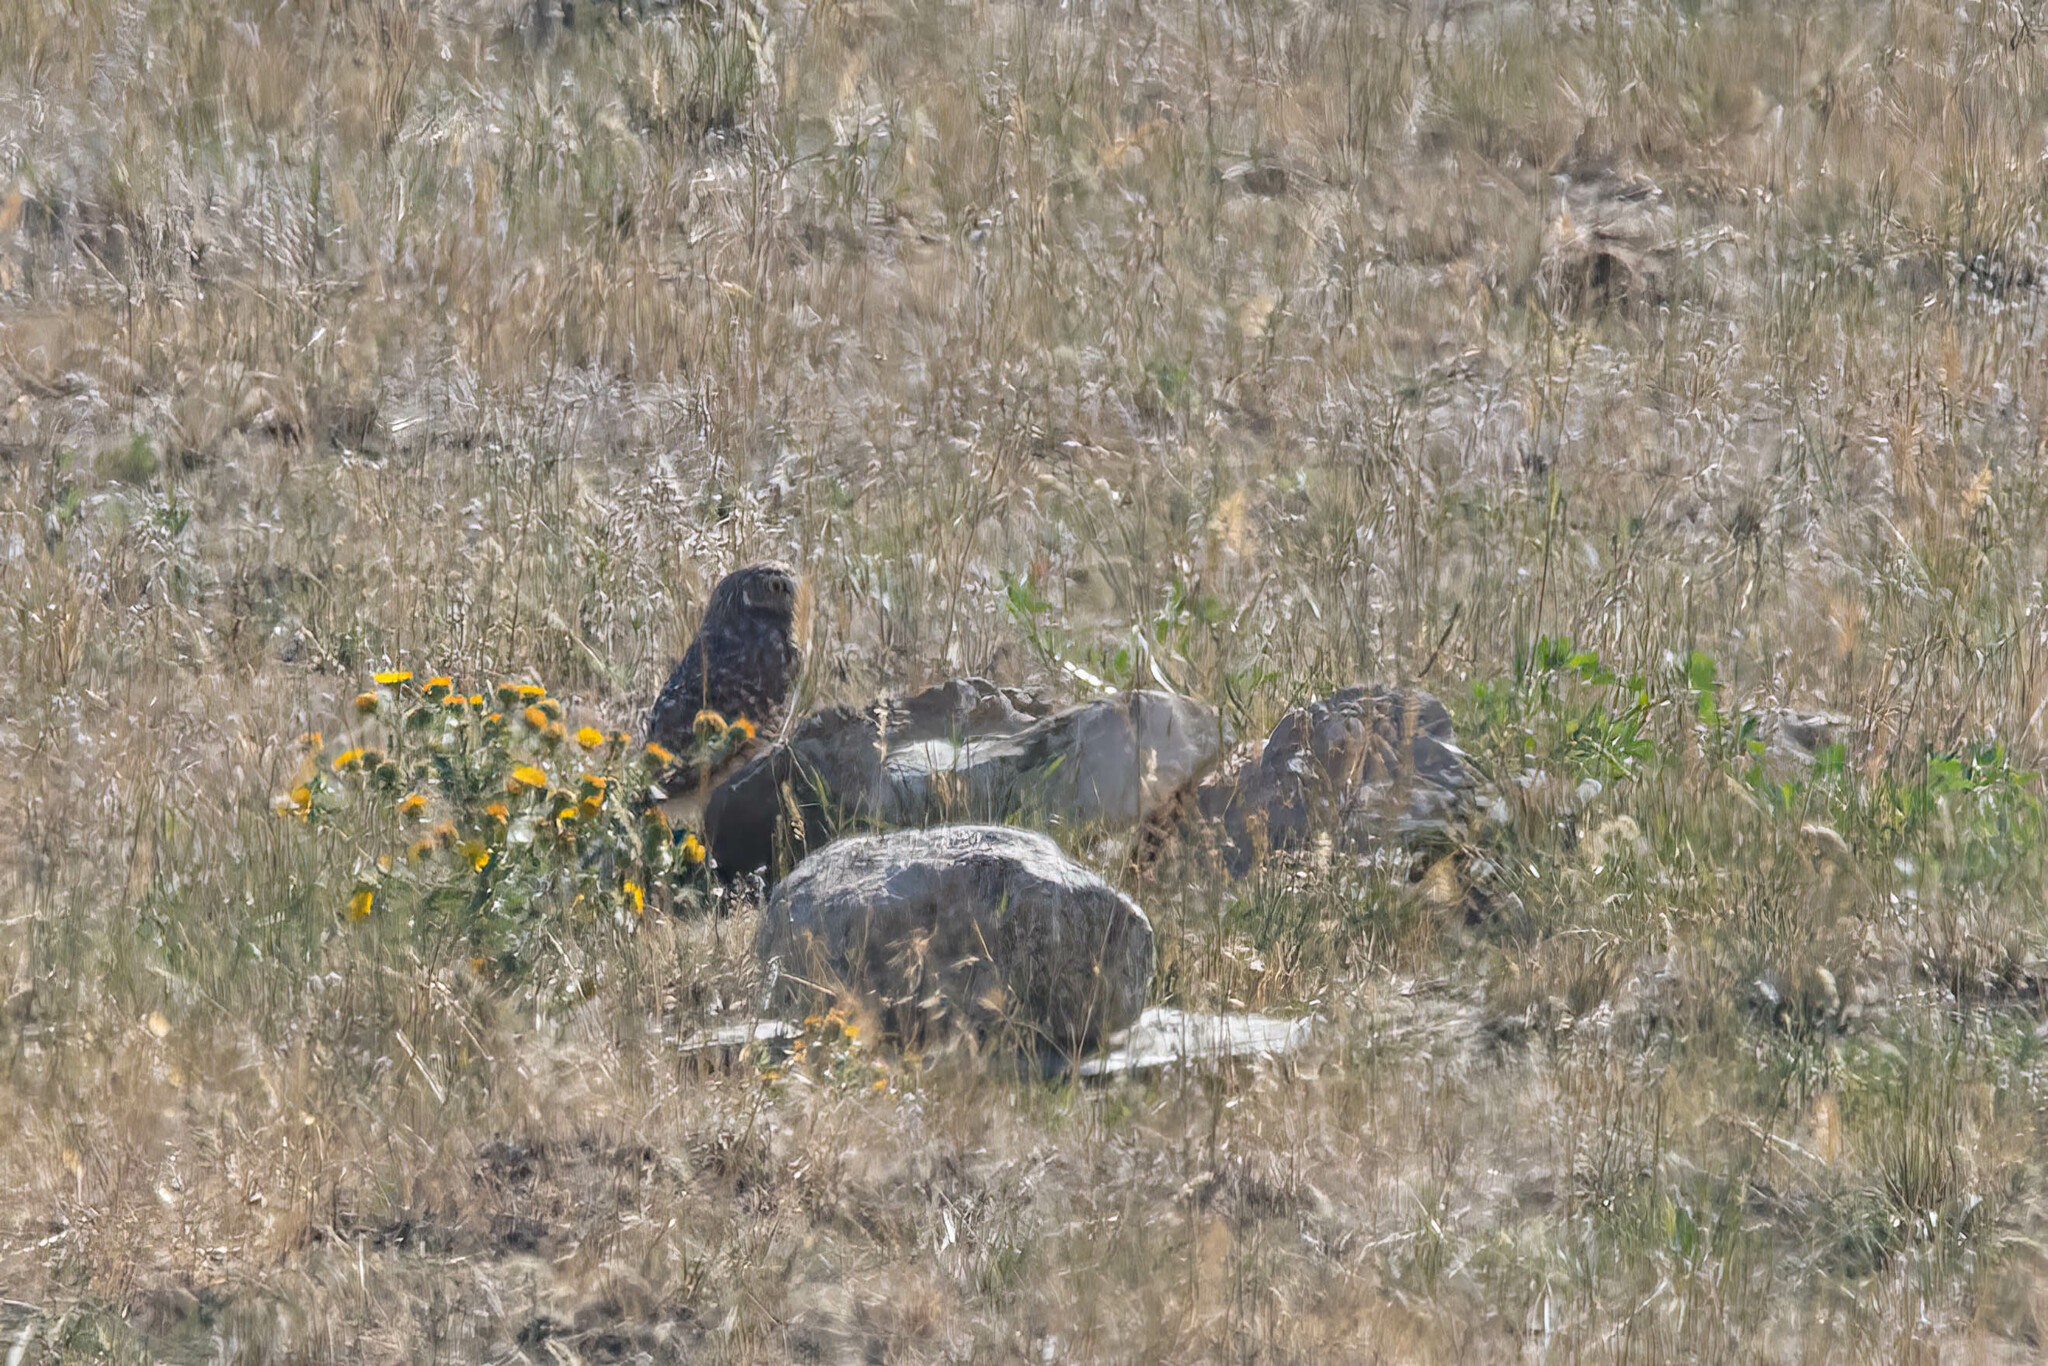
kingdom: Animalia
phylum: Chordata
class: Aves
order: Strigiformes
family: Strigidae
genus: Athene
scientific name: Athene cunicularia
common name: Burrowing owl
